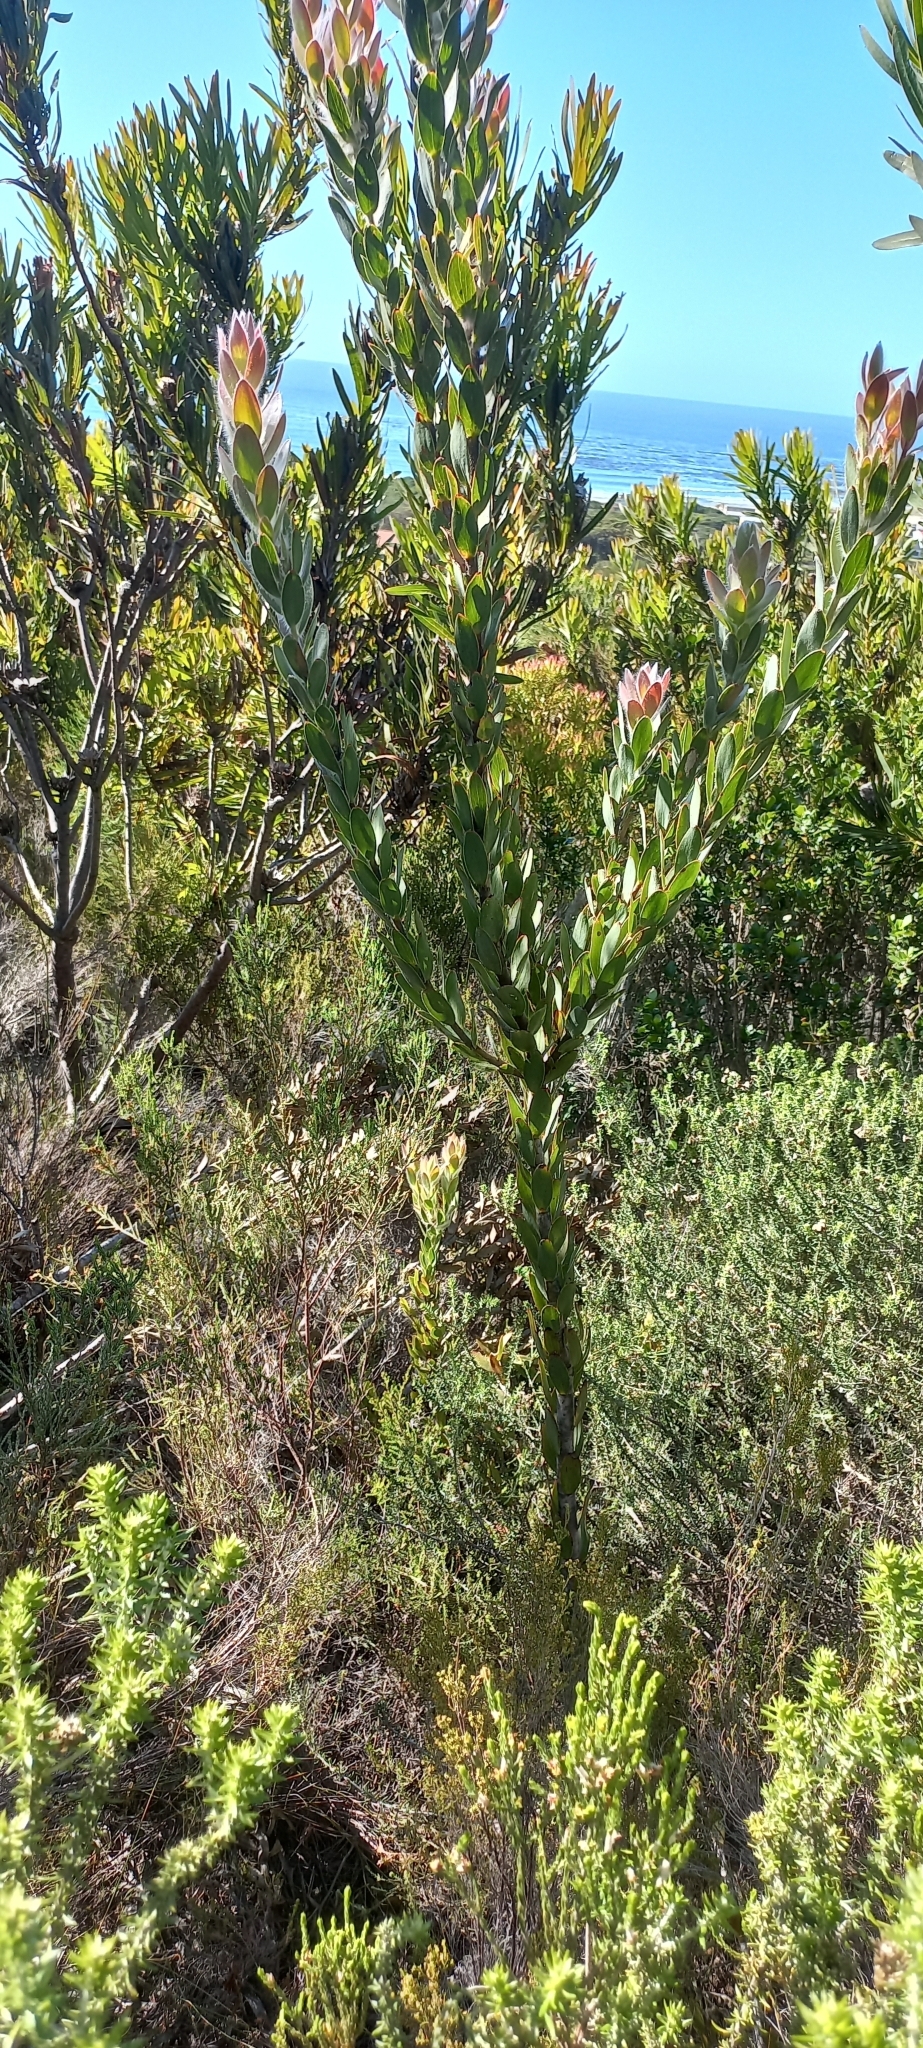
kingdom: Plantae
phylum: Tracheophyta
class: Magnoliopsida
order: Proteales
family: Proteaceae
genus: Leucadendron
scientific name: Leucadendron nervosum
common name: Silky-ruff conebush
